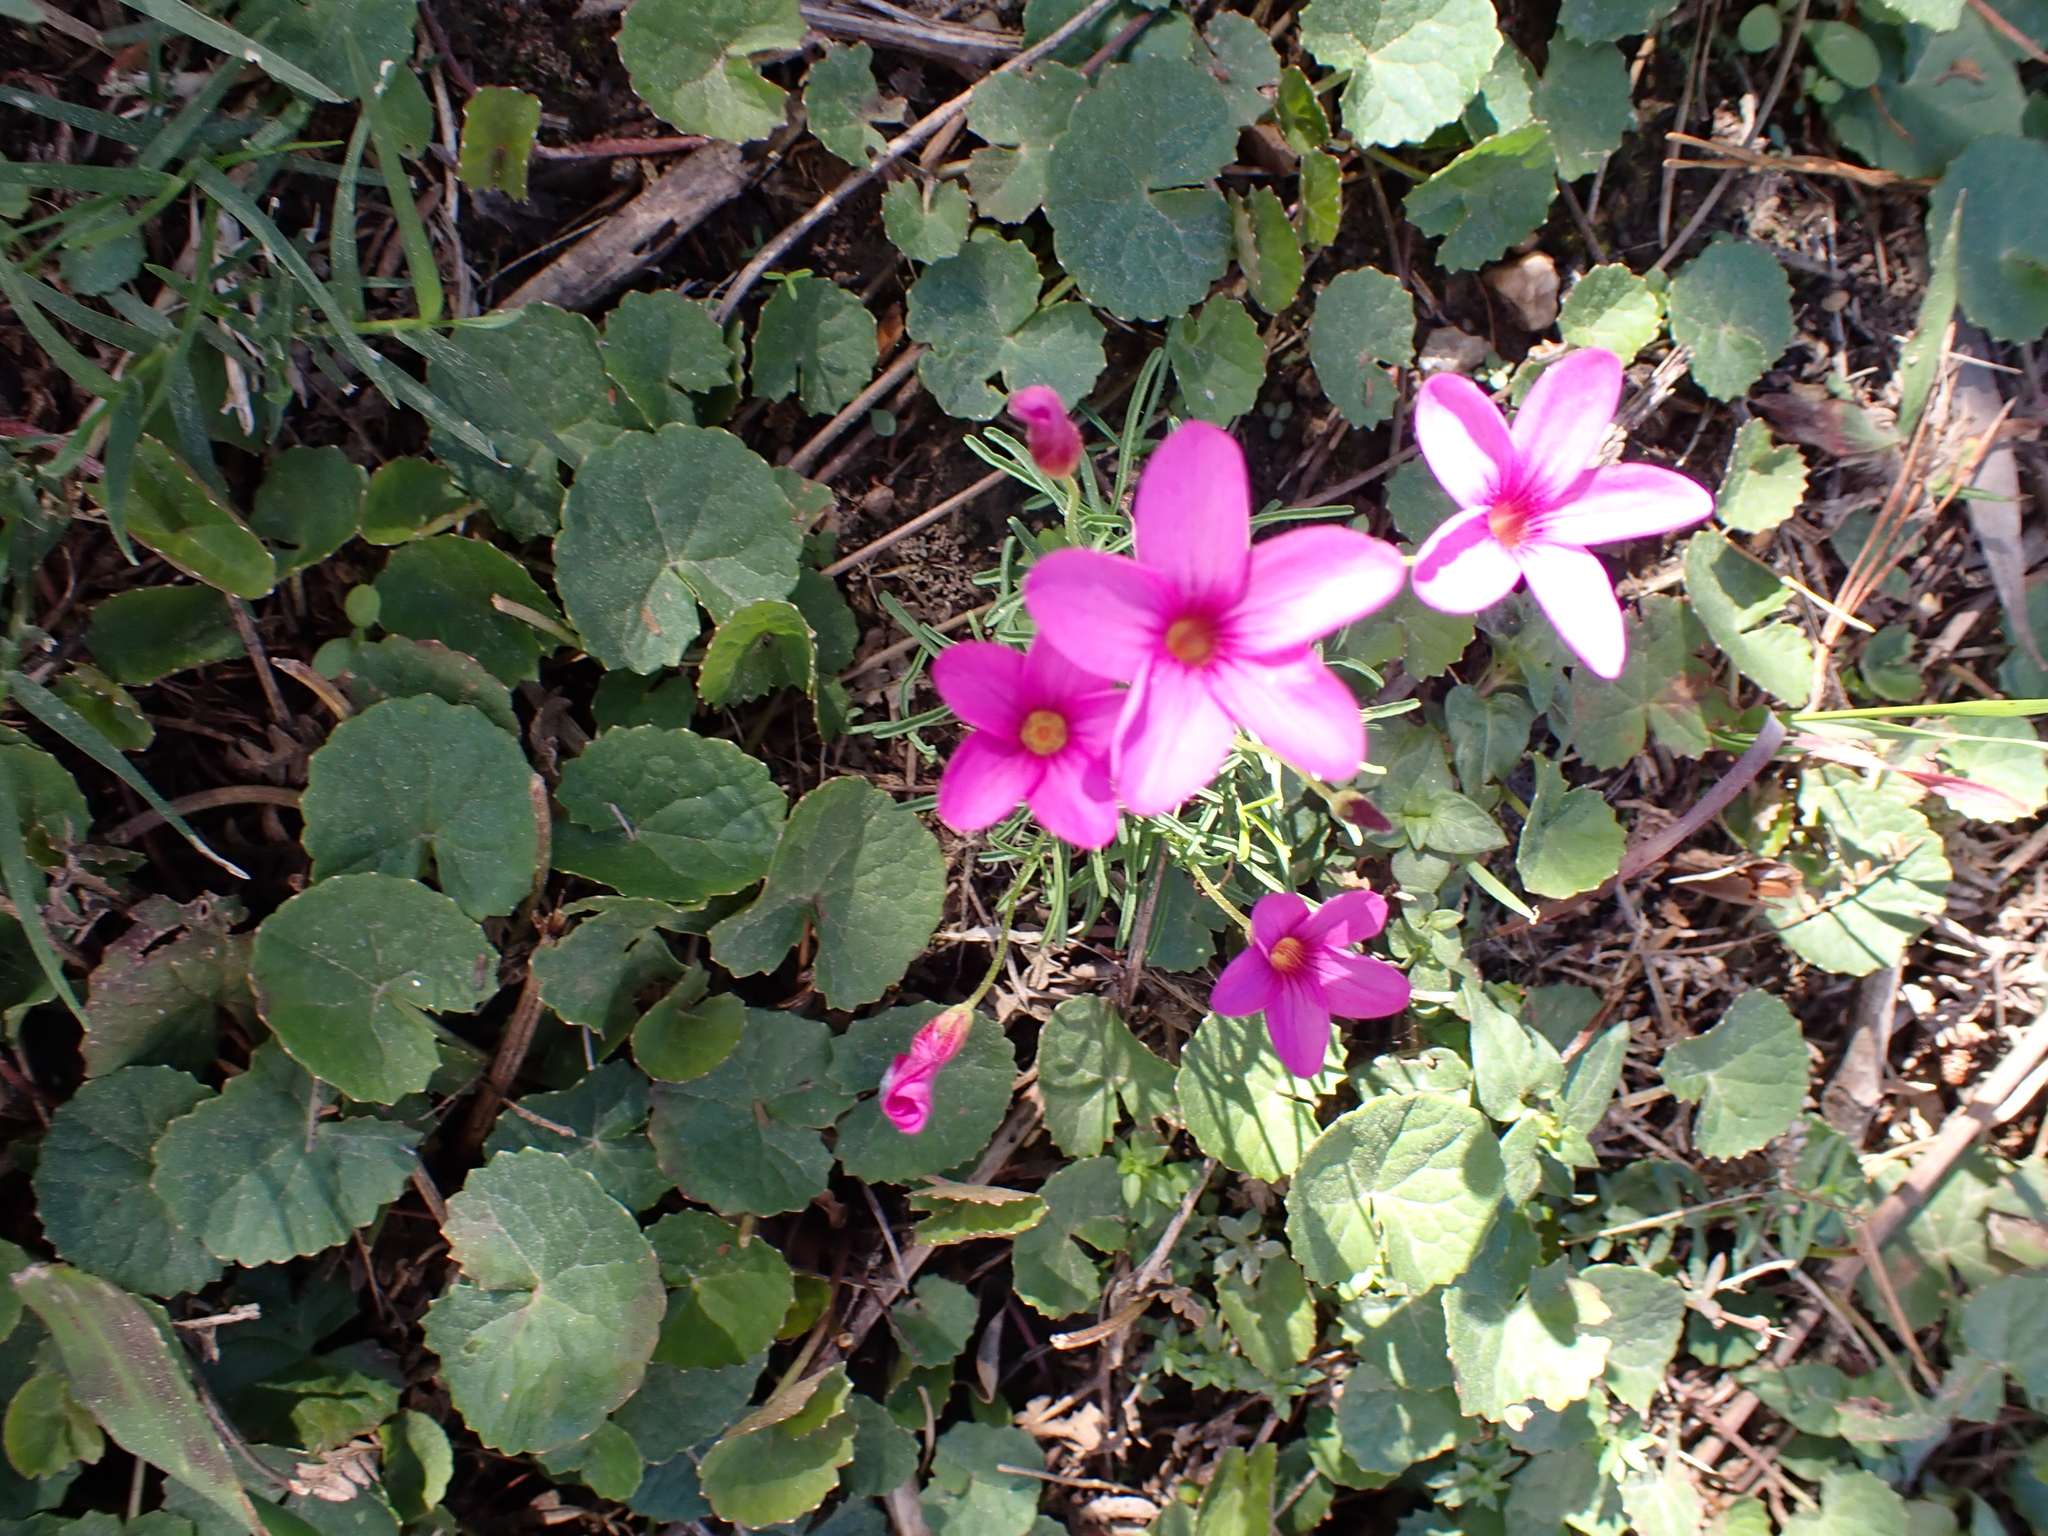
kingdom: Plantae
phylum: Tracheophyta
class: Magnoliopsida
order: Oxalidales
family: Oxalidaceae
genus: Oxalis
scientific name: Oxalis polyphylla
